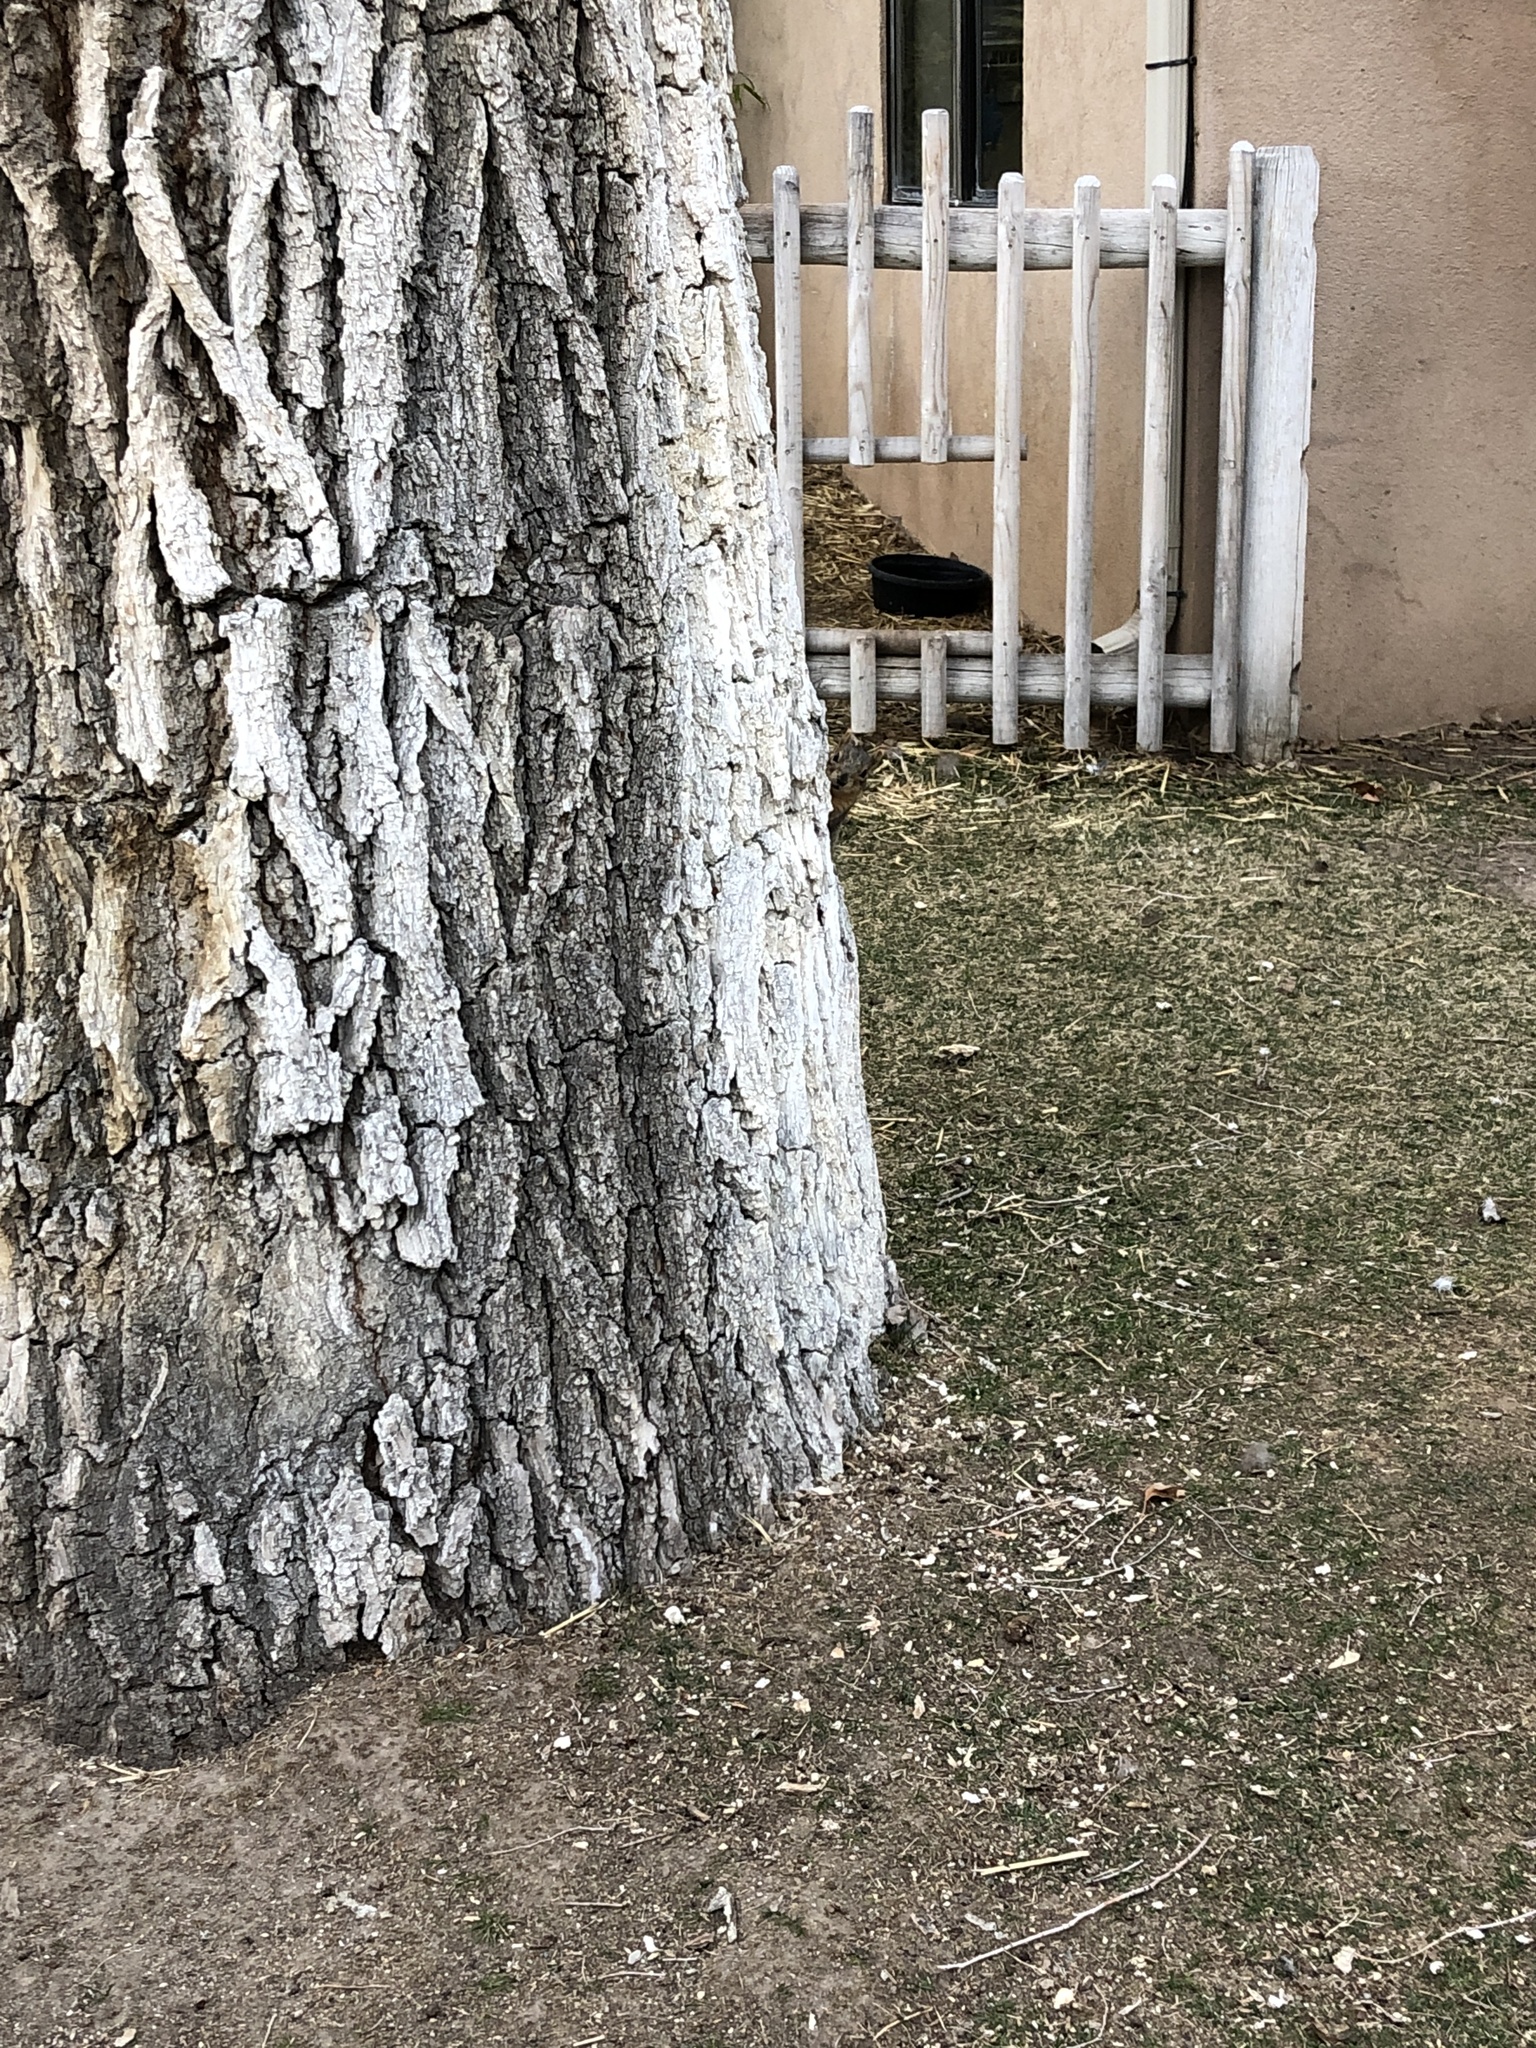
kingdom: Animalia
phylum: Chordata
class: Mammalia
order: Rodentia
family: Sciuridae
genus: Sciurus
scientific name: Sciurus niger
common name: Fox squirrel
